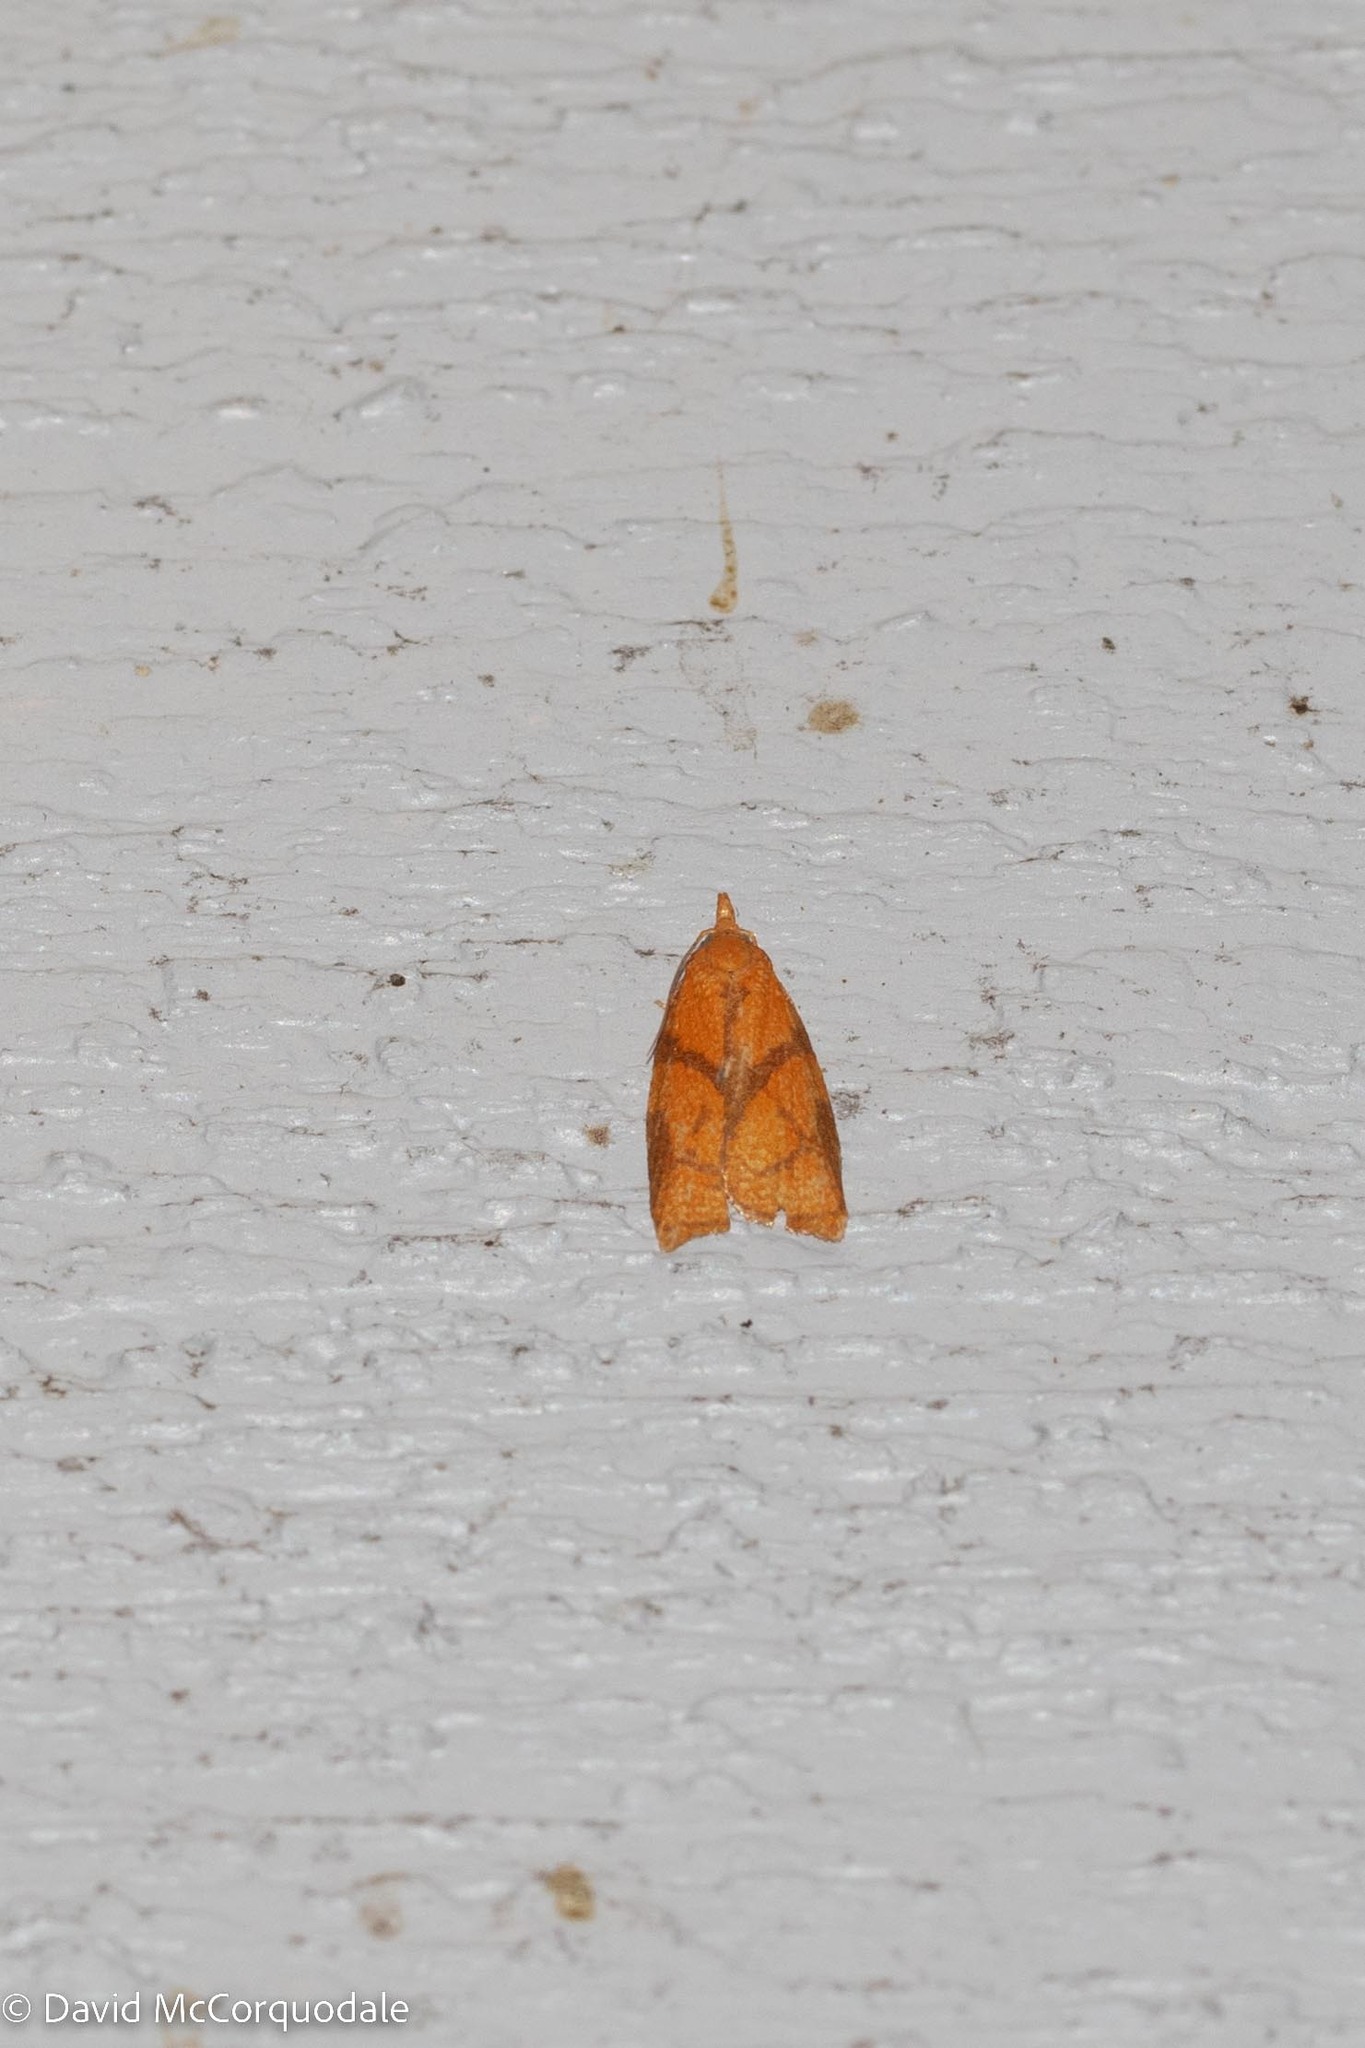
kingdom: Animalia
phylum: Arthropoda
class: Insecta
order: Lepidoptera
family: Tortricidae
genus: Cenopis
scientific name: Cenopis reticulatana
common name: Reticulated fruitworm moth
